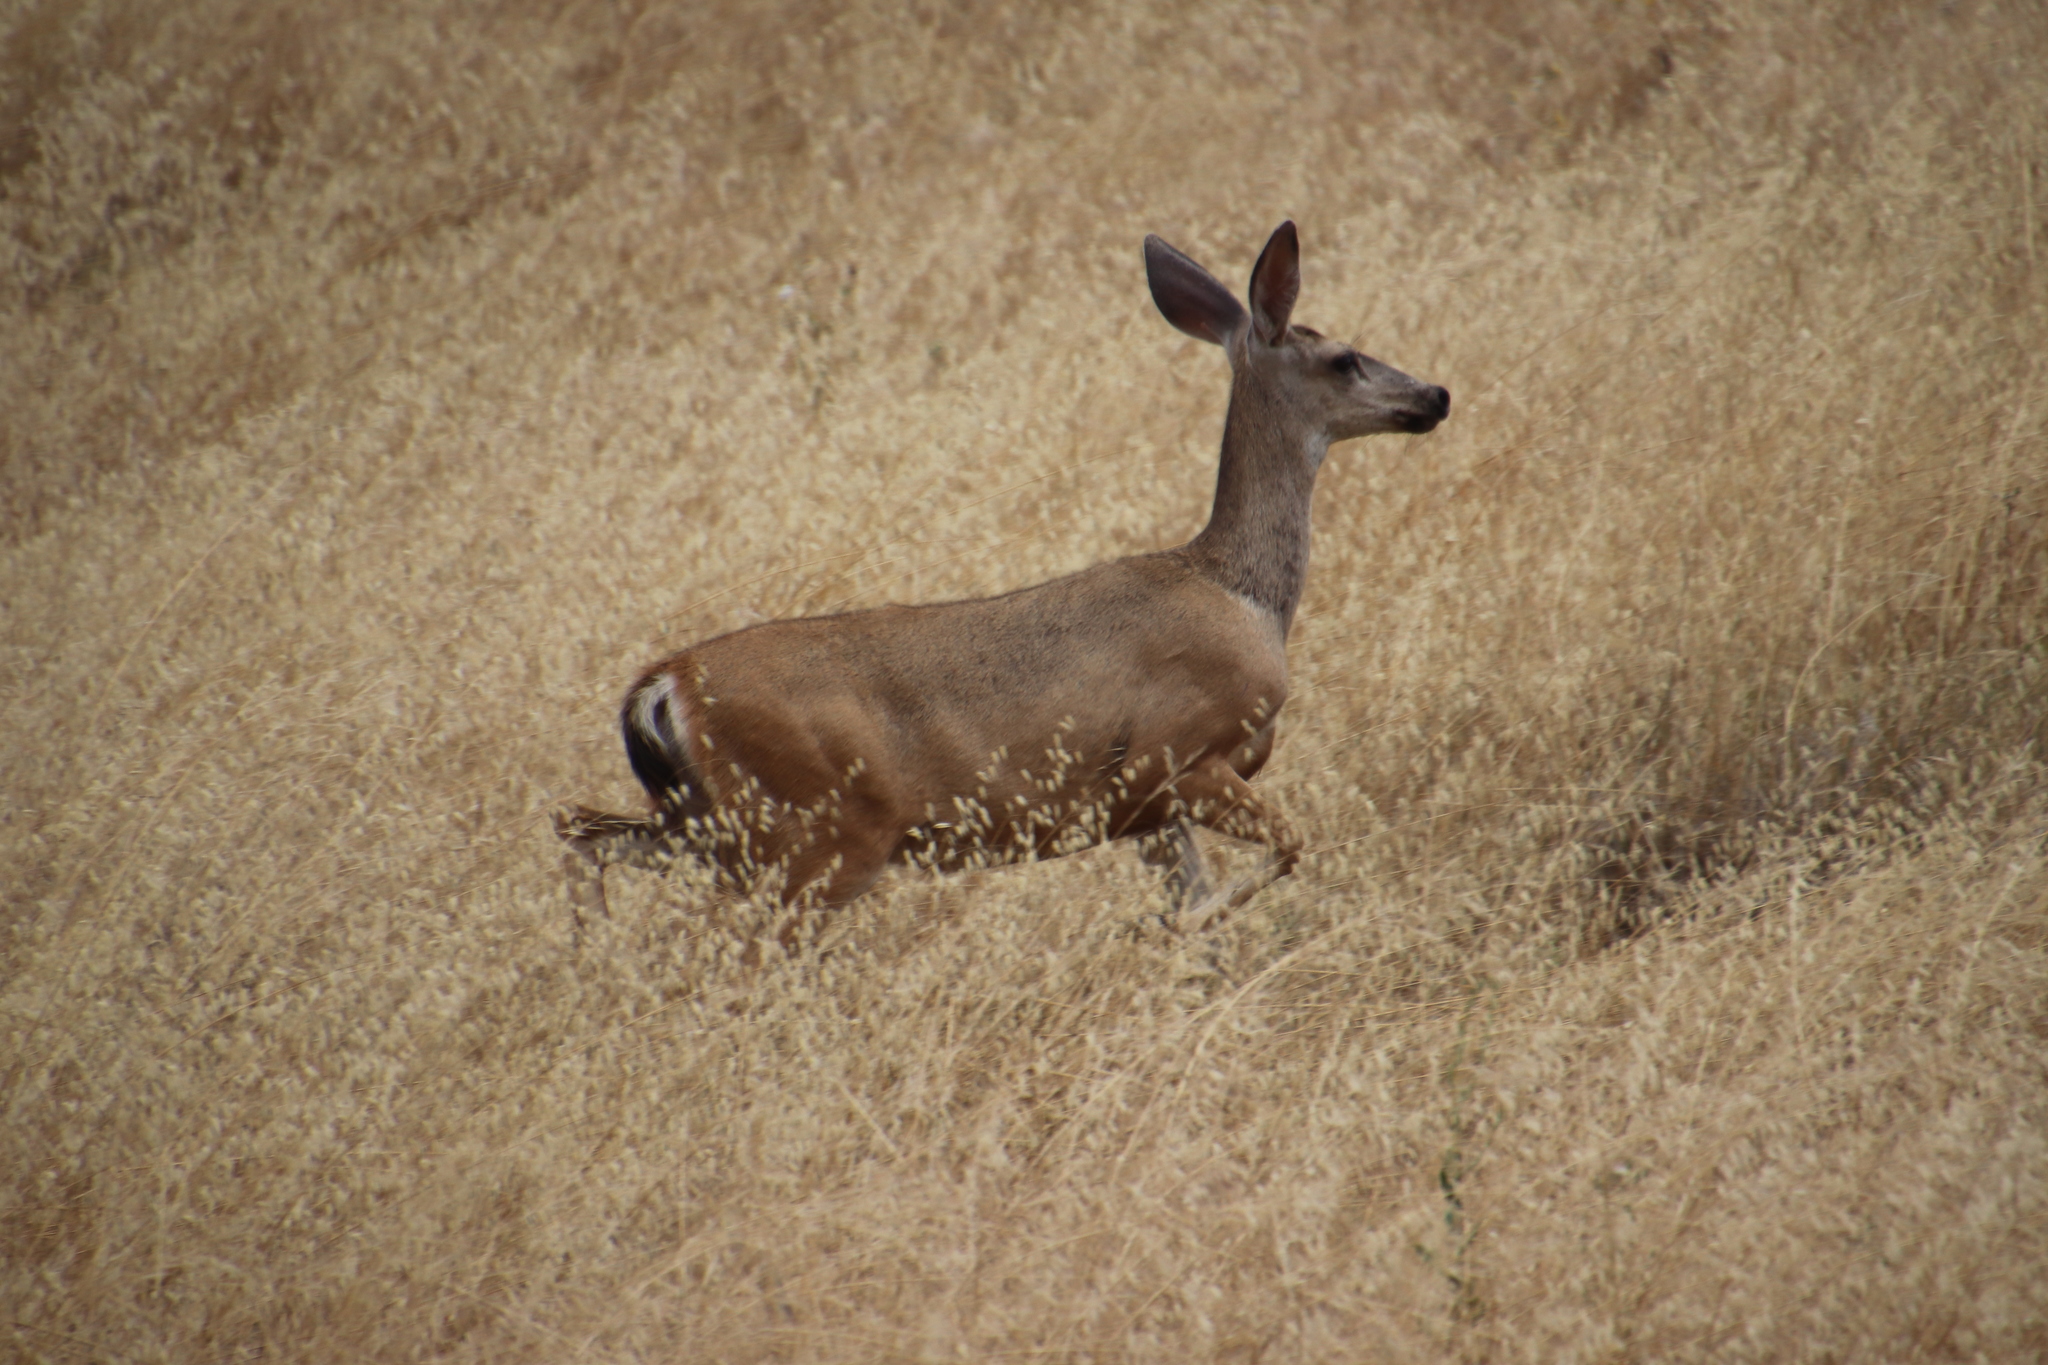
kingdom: Animalia
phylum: Chordata
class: Mammalia
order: Artiodactyla
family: Cervidae
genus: Odocoileus
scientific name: Odocoileus hemionus
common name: Mule deer
